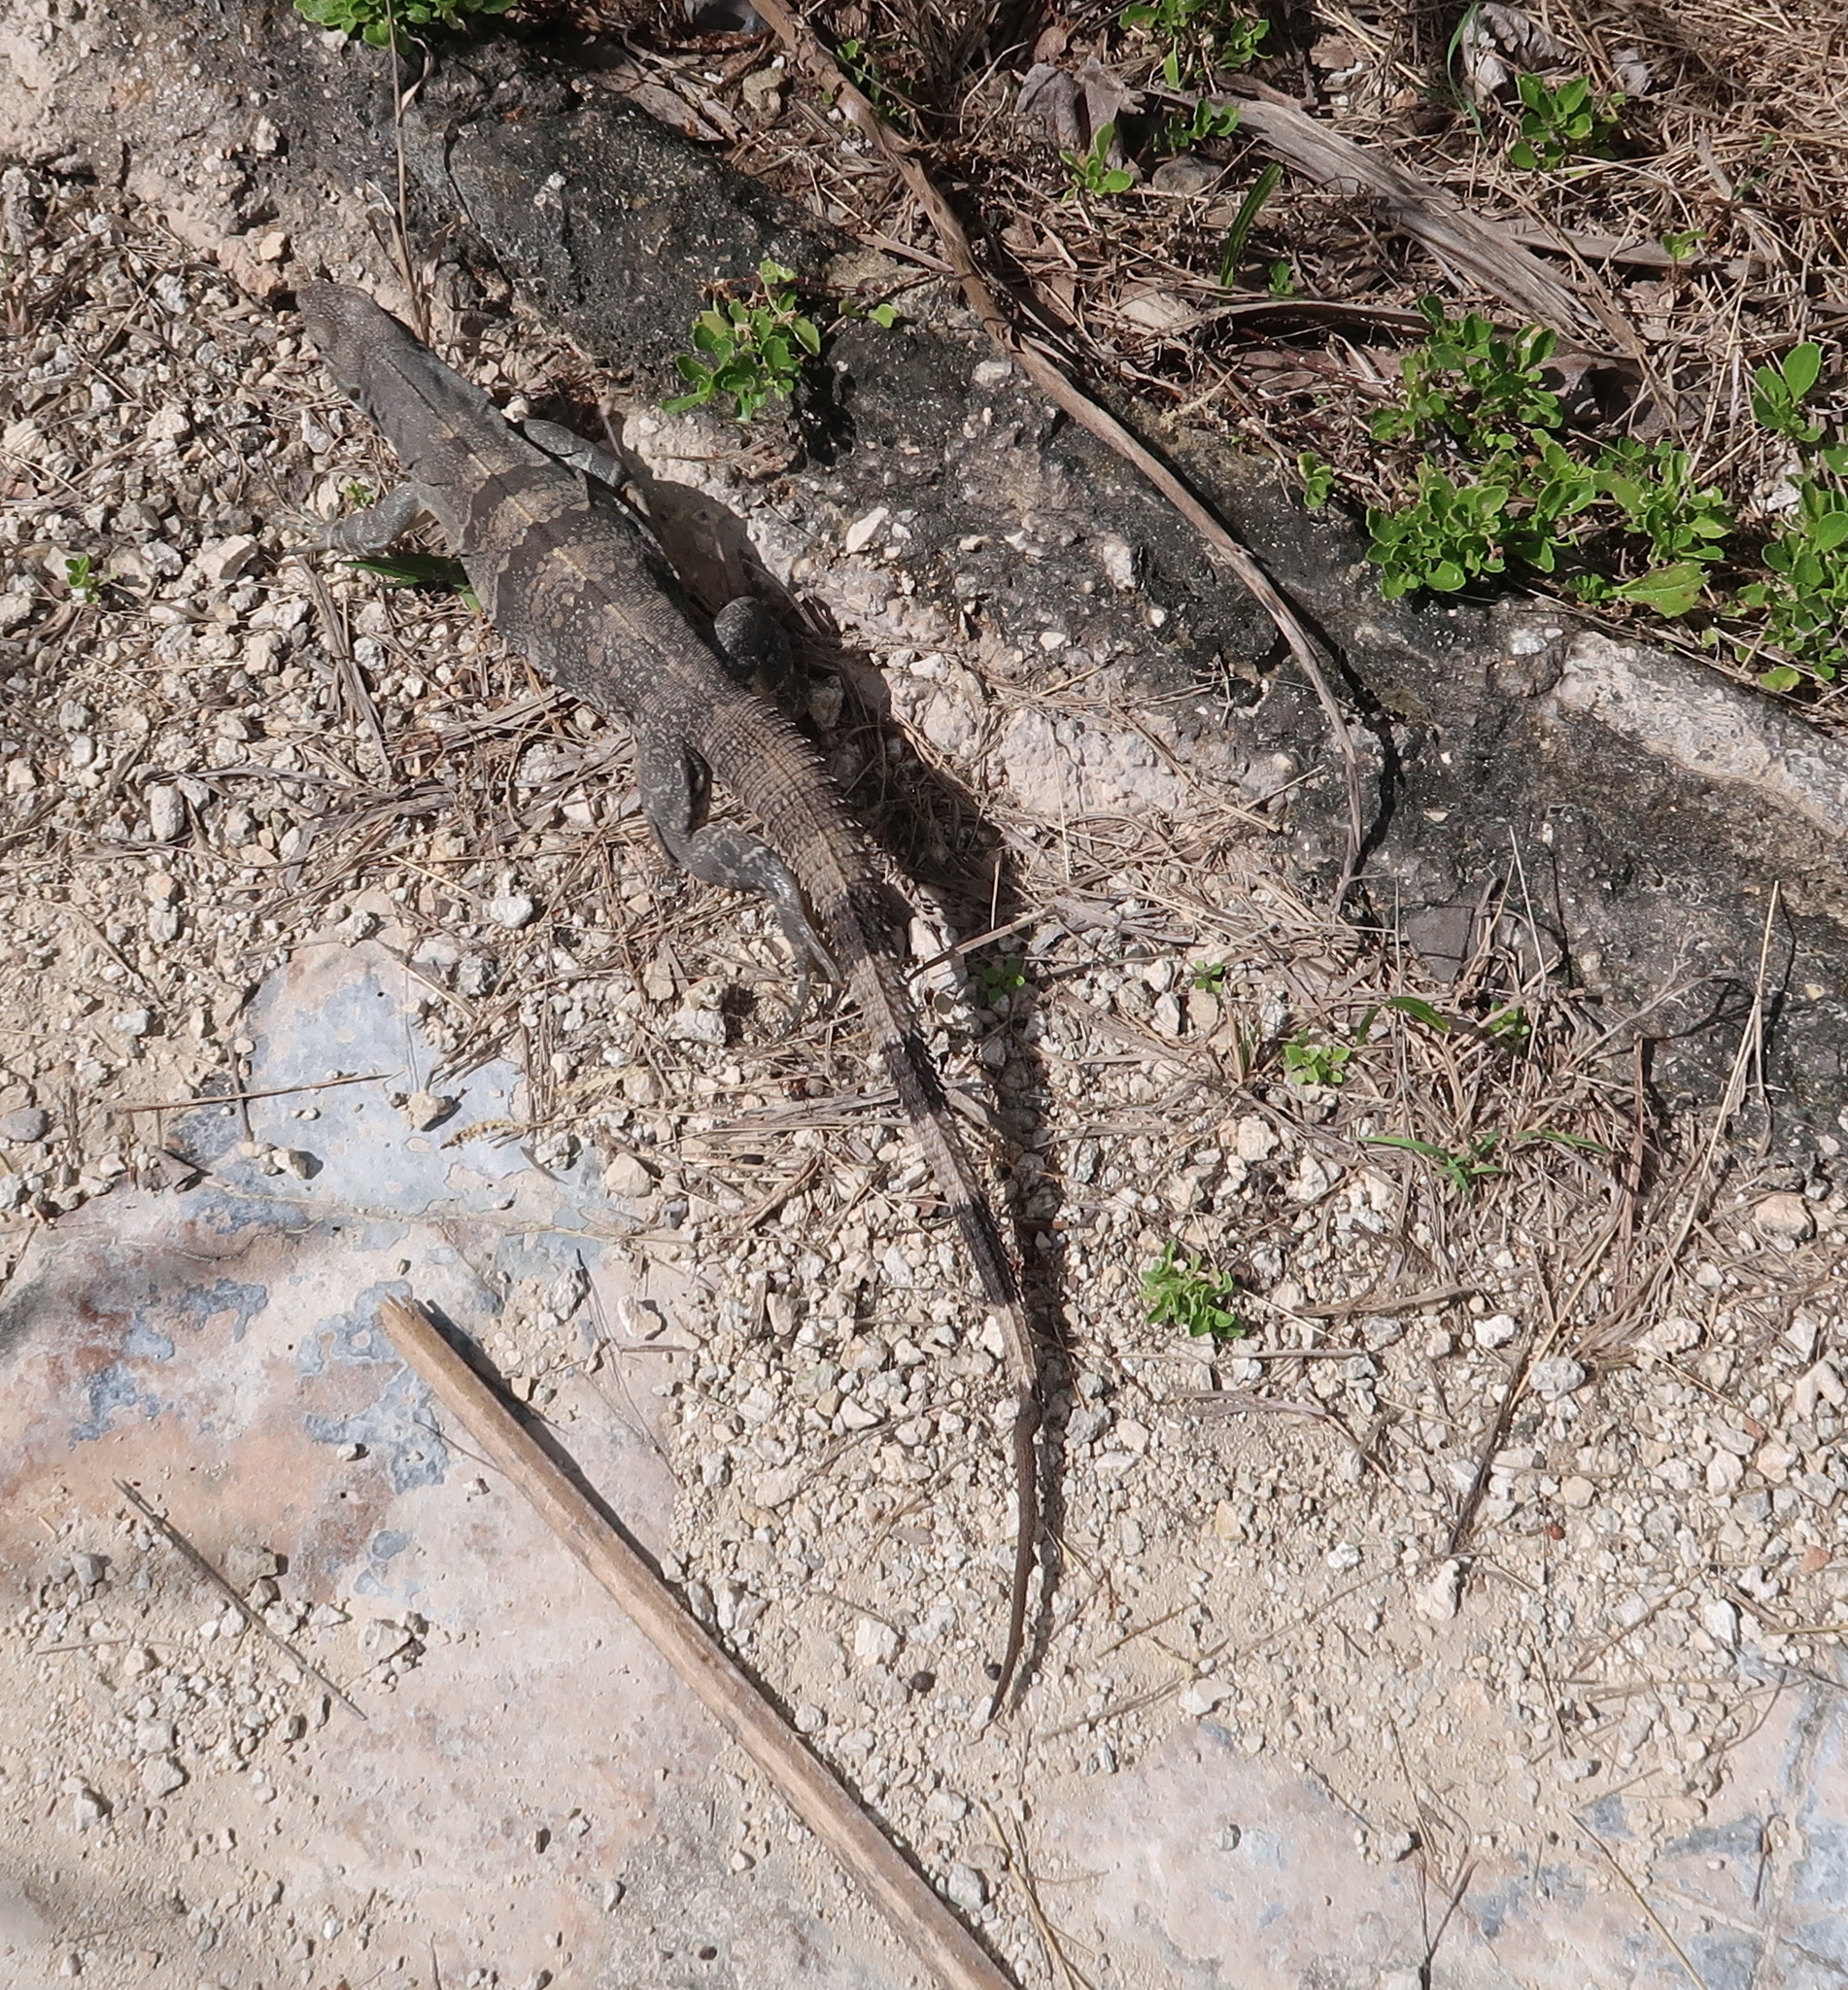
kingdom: Animalia
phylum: Chordata
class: Squamata
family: Iguanidae
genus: Ctenosaura
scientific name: Ctenosaura similis
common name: Black spiny-tailed iguana
